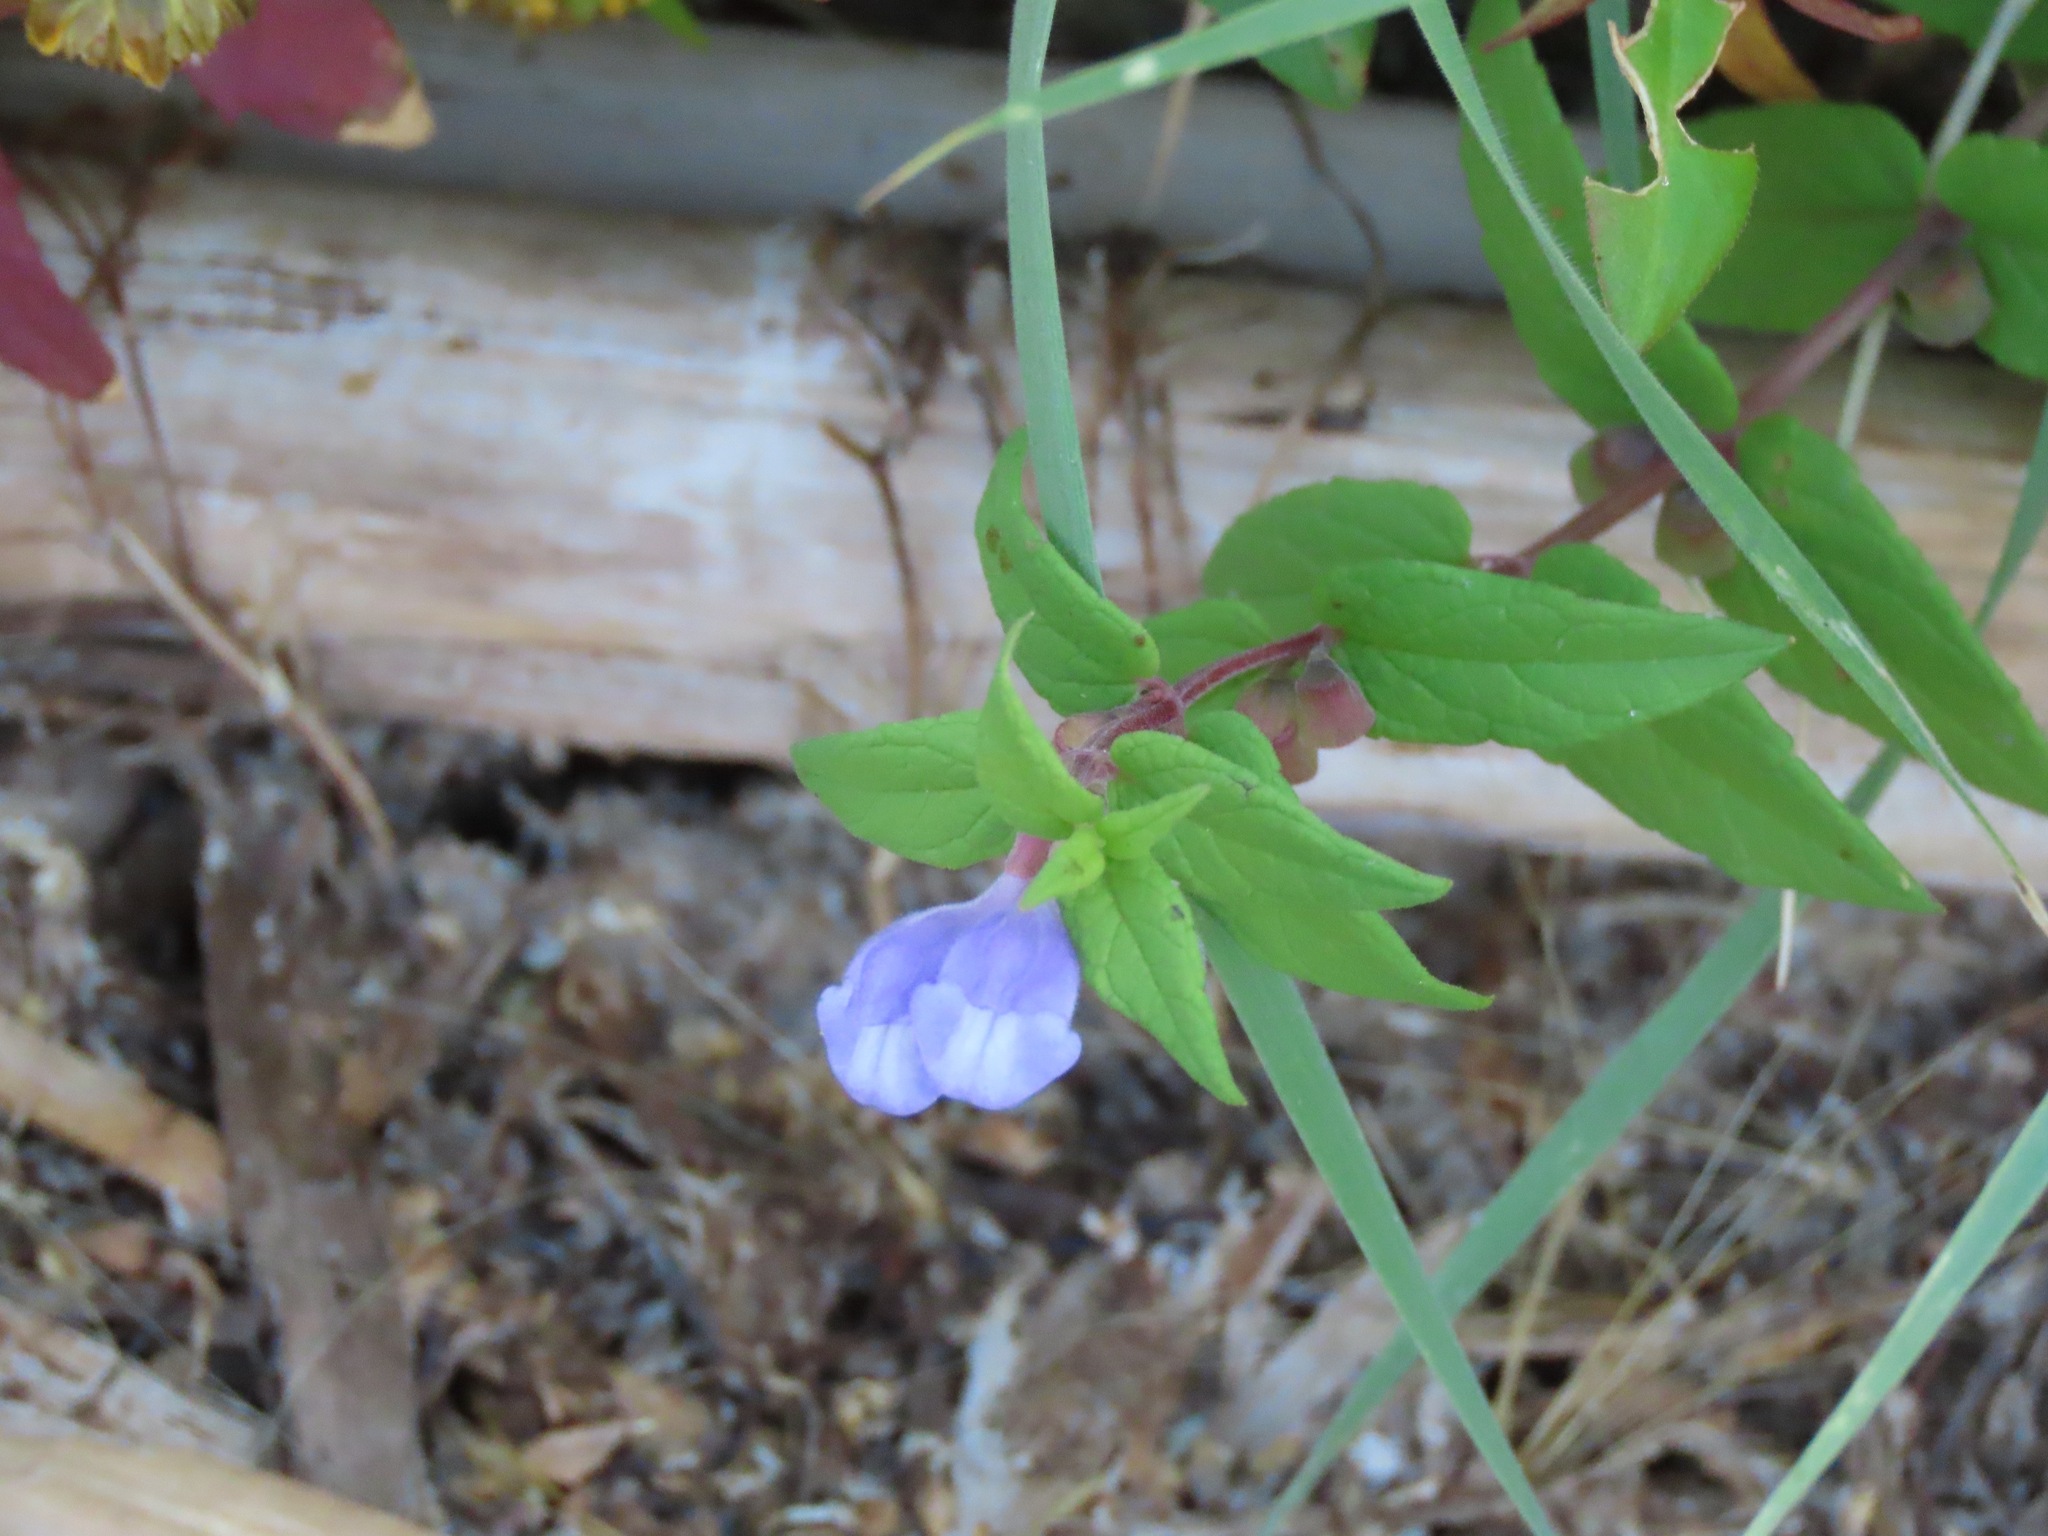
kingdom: Plantae
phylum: Tracheophyta
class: Magnoliopsida
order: Lamiales
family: Lamiaceae
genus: Scutellaria
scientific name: Scutellaria galericulata
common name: Skullcap
